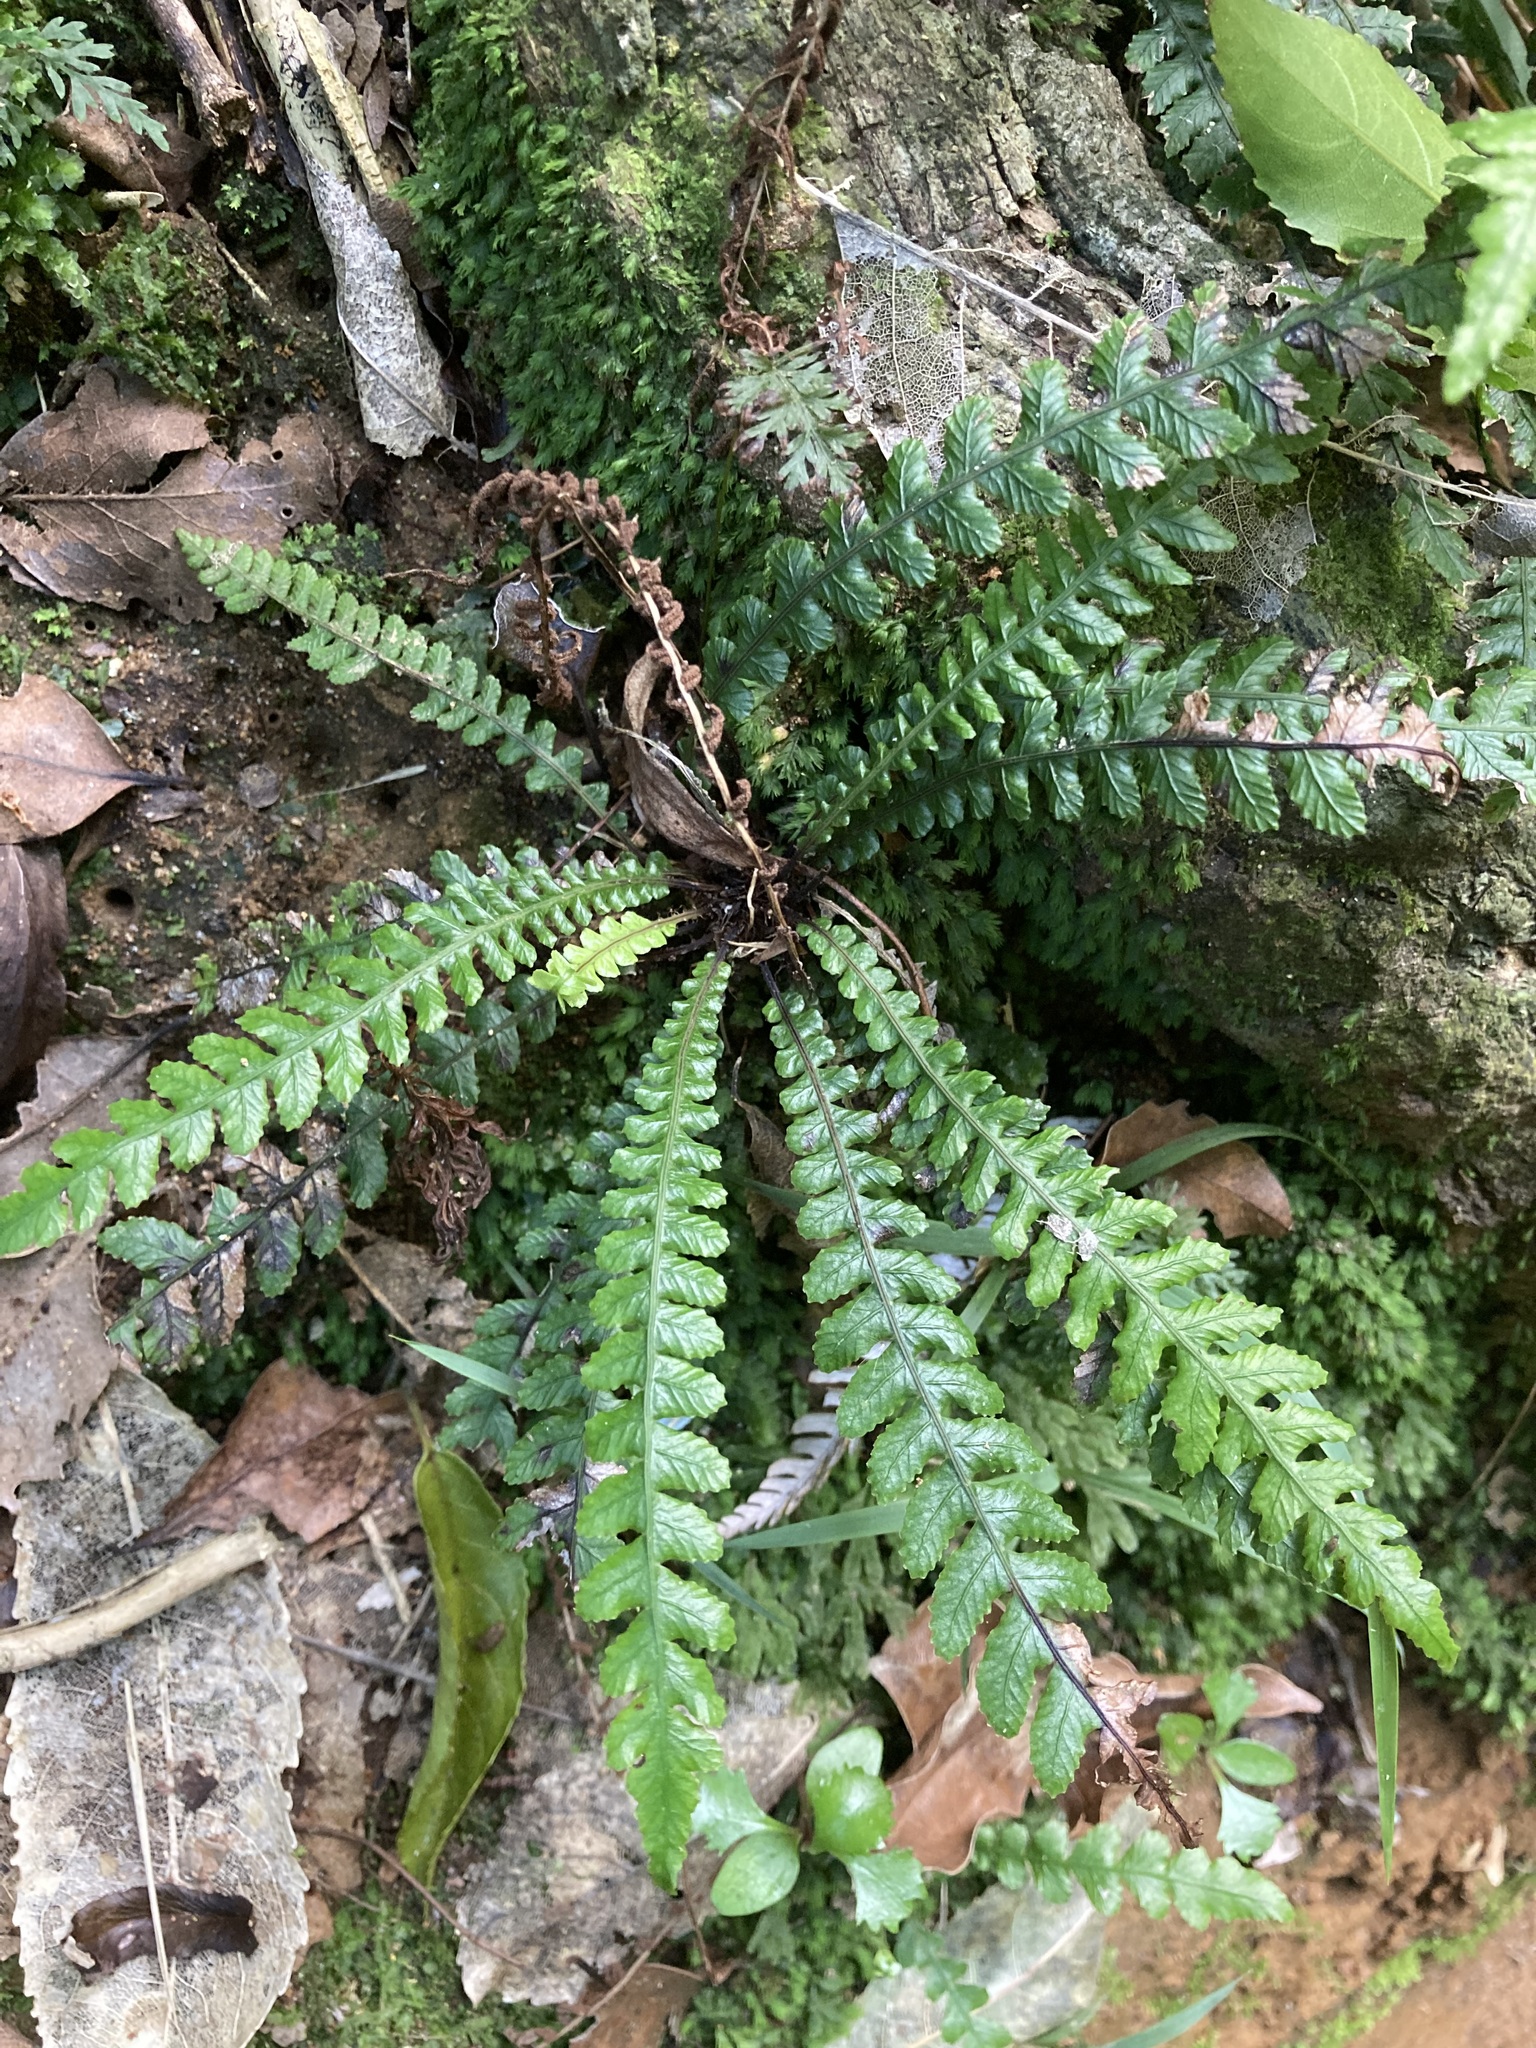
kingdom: Plantae
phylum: Tracheophyta
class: Polypodiopsida
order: Polypodiales
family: Blechnaceae
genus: Austroblechnum
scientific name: Austroblechnum membranaceum
